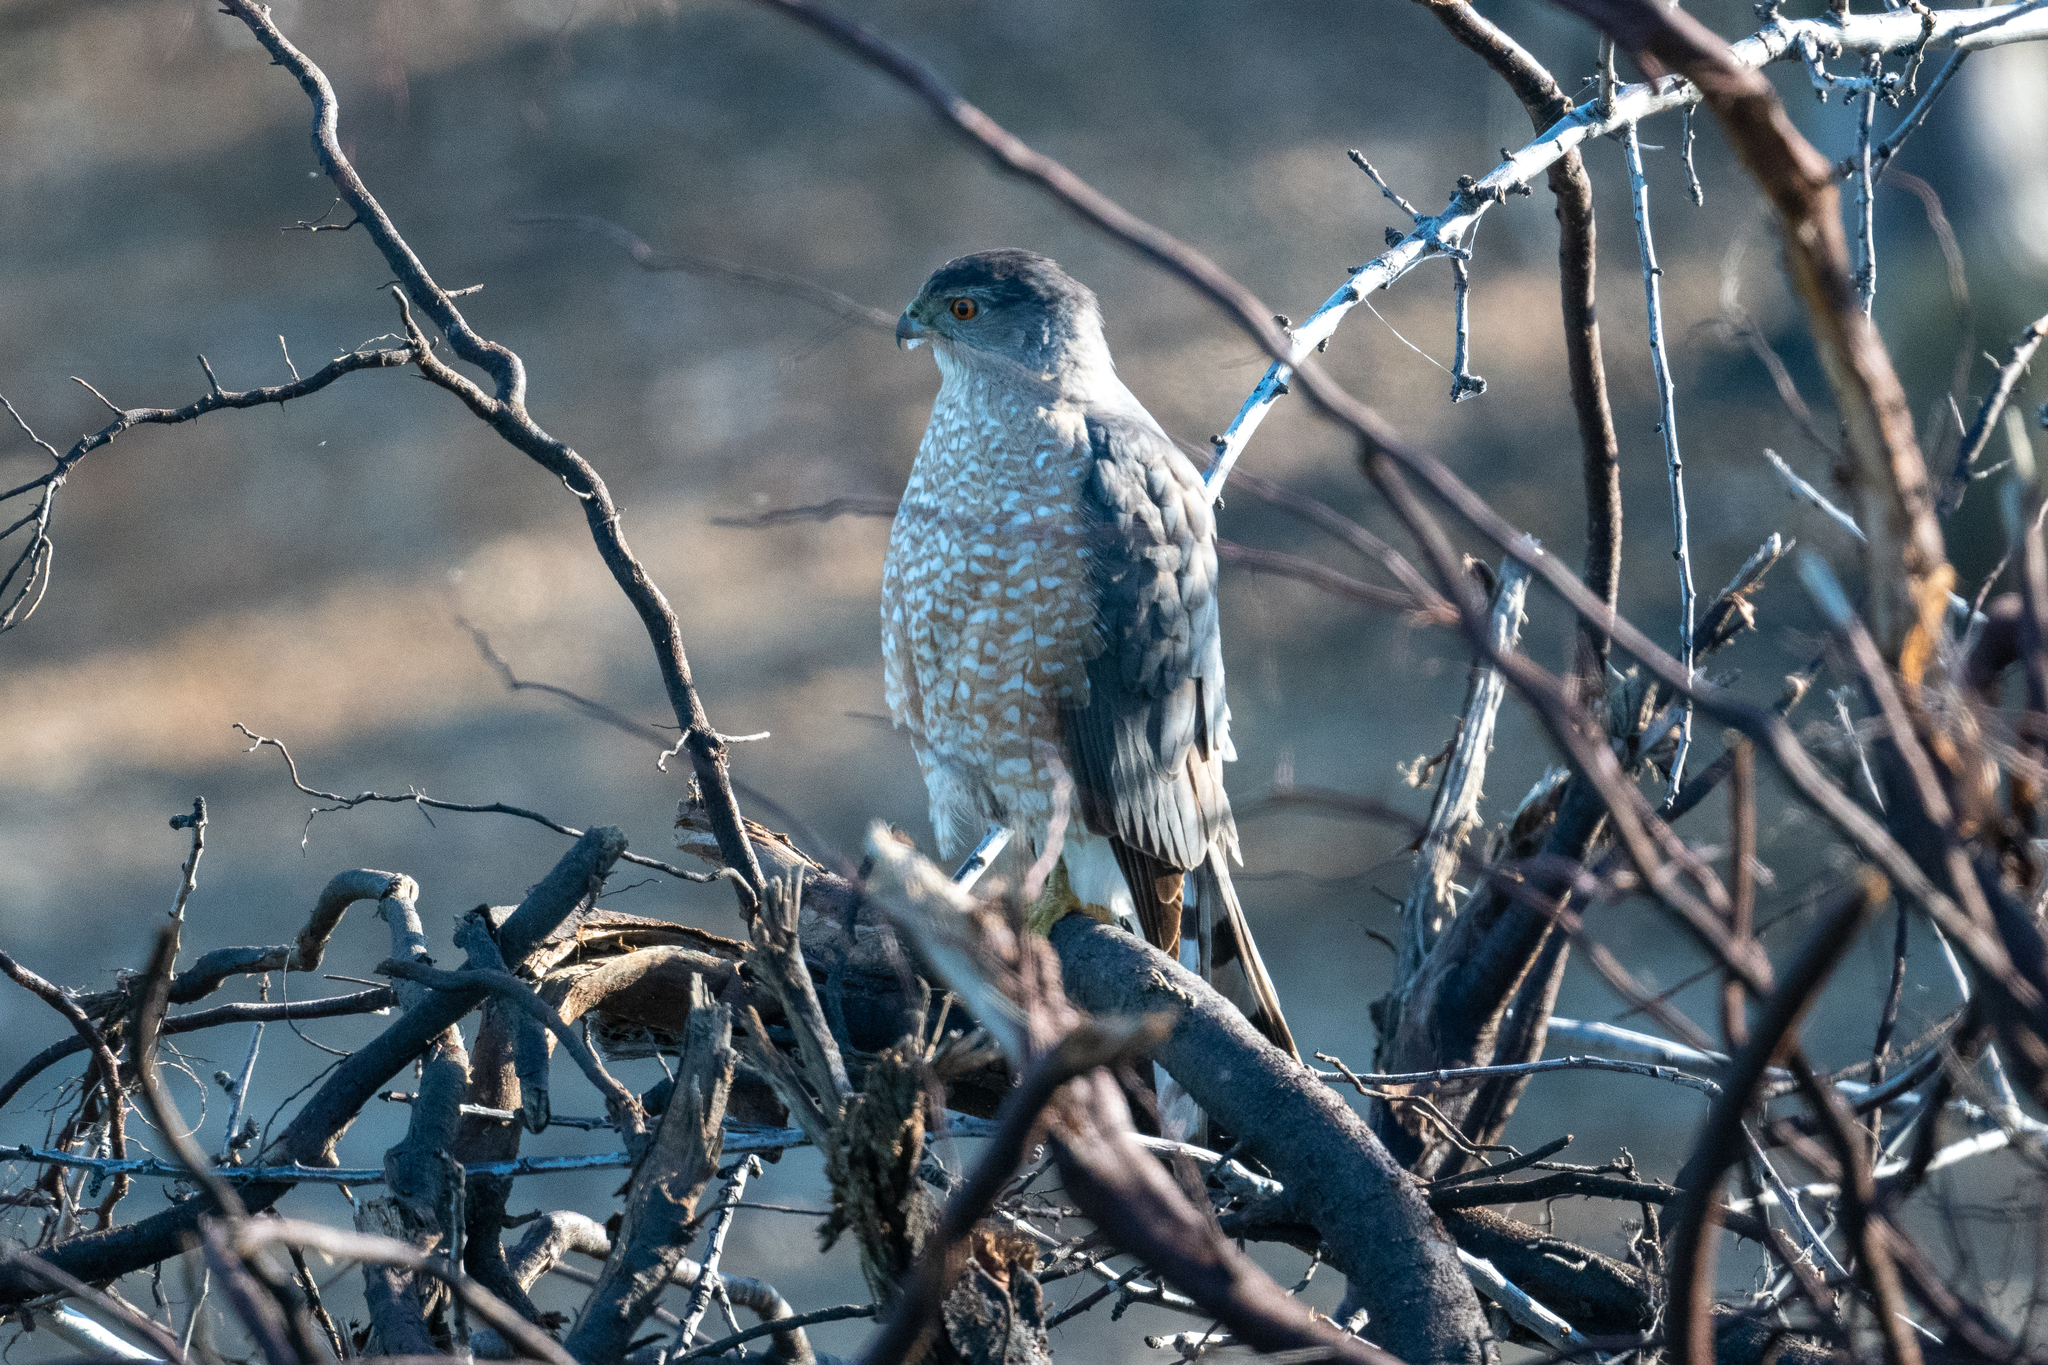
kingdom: Animalia
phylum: Chordata
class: Aves
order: Accipitriformes
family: Accipitridae
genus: Accipiter
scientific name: Accipiter cooperii
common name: Cooper's hawk
